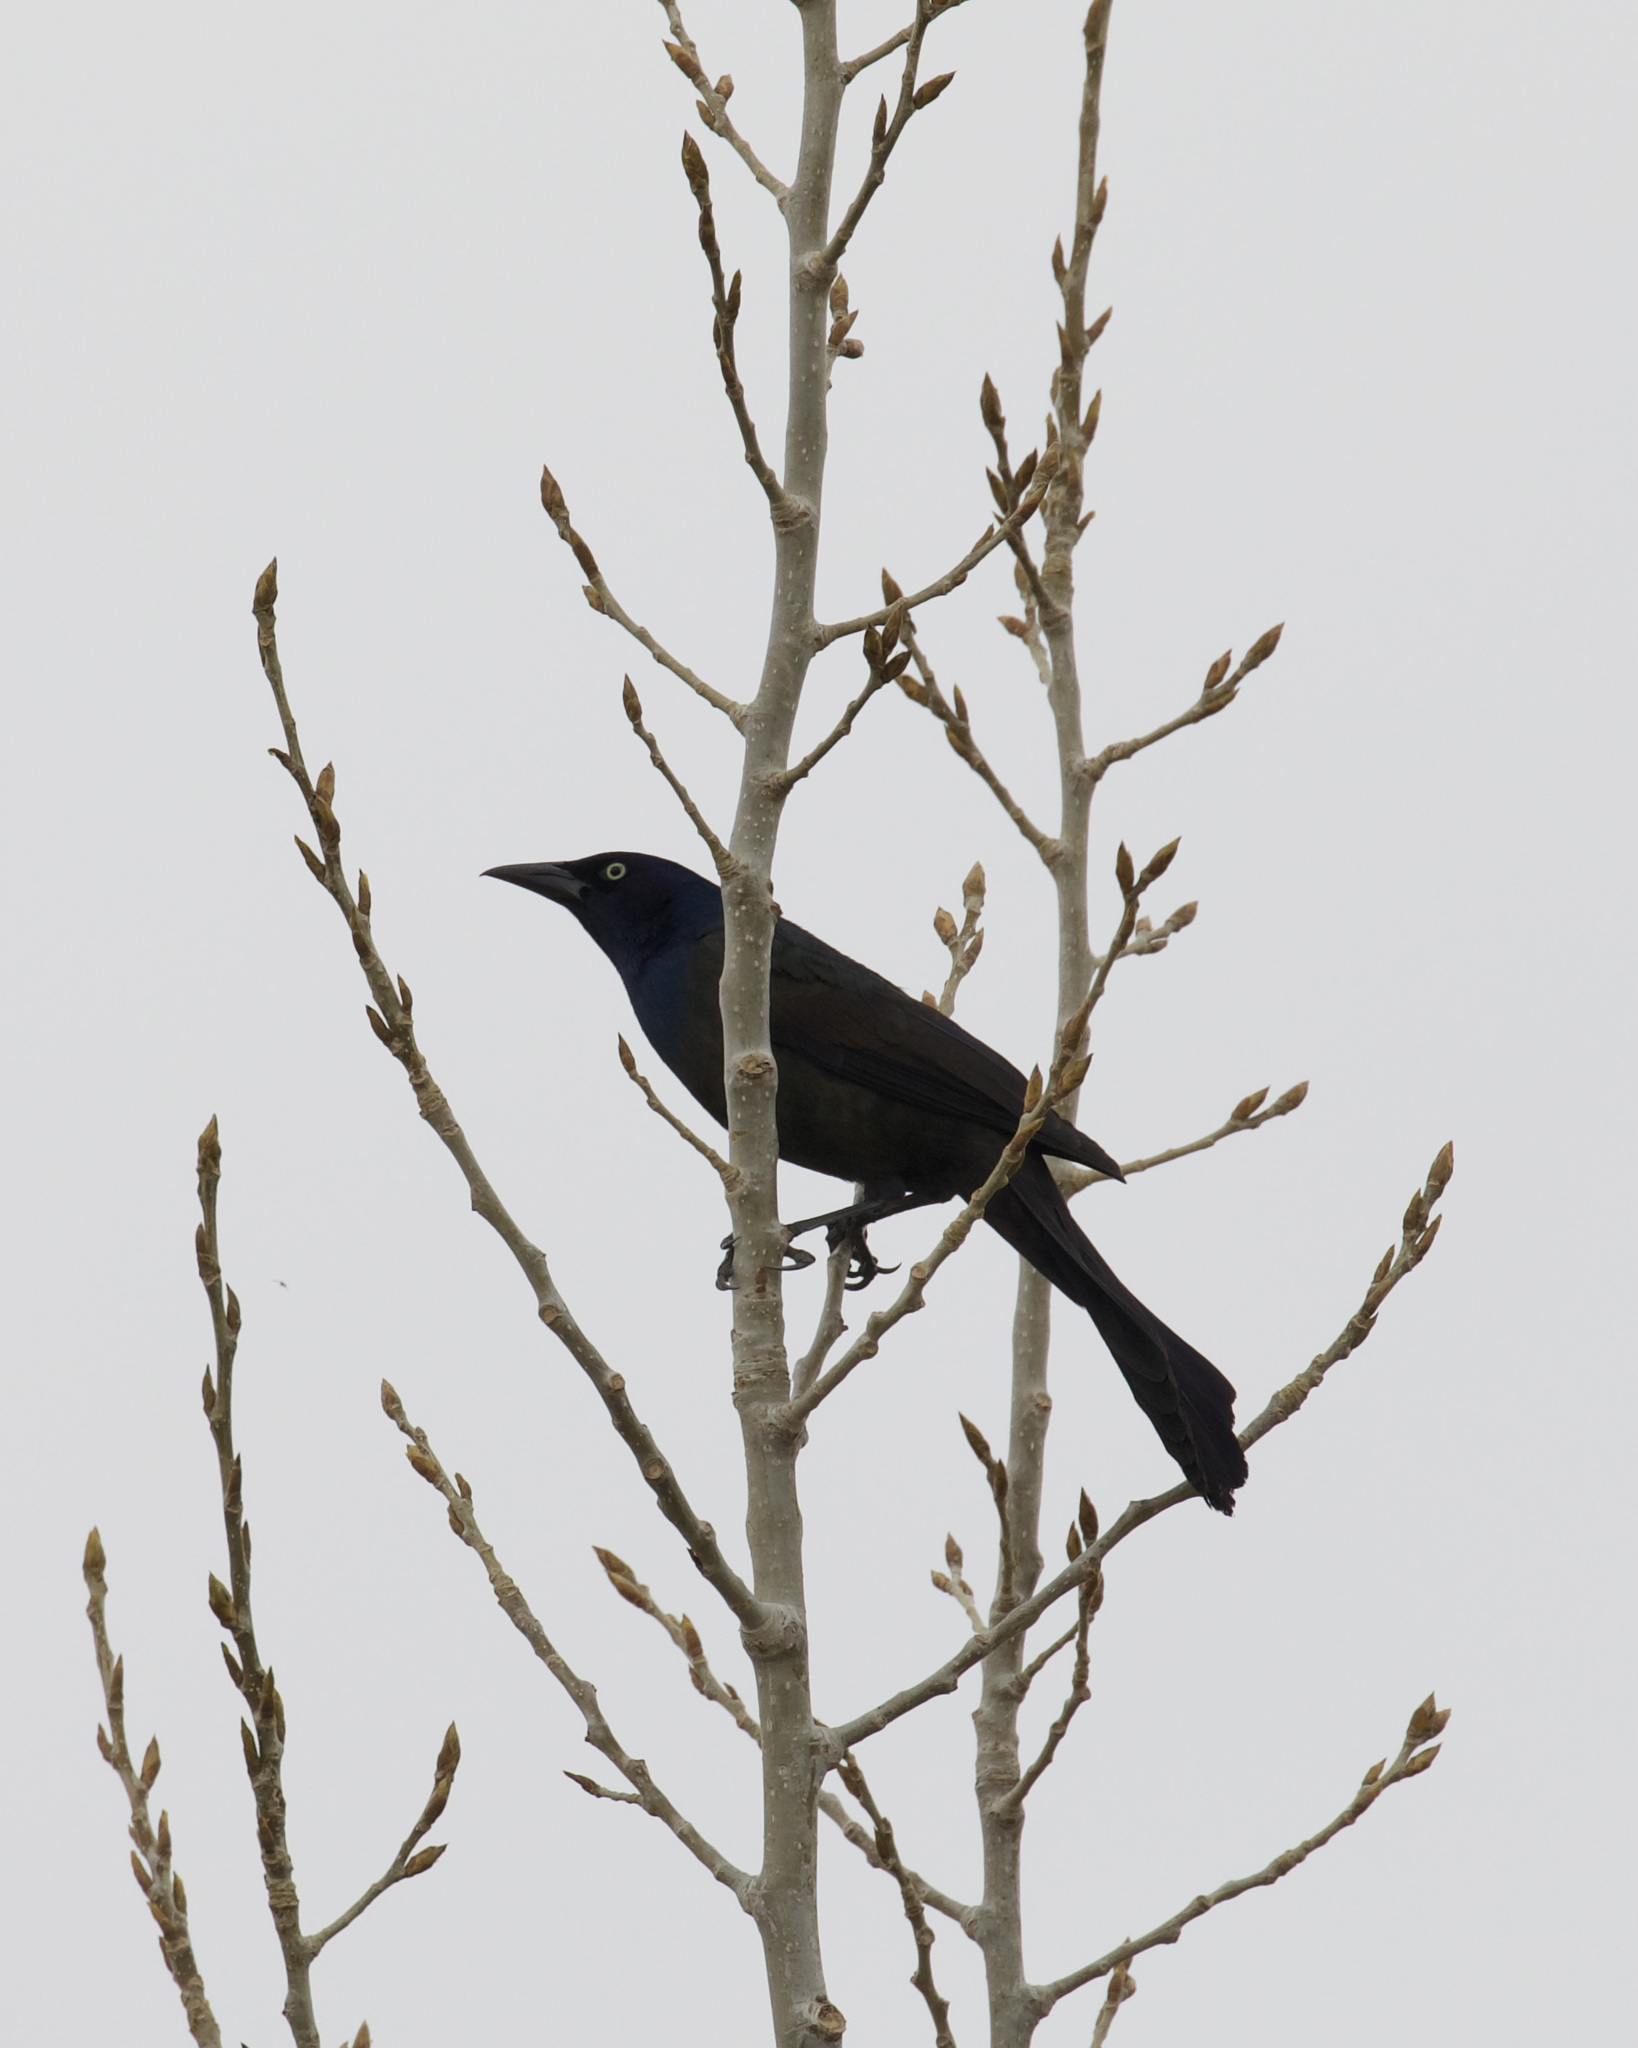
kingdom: Animalia
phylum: Chordata
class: Aves
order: Passeriformes
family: Icteridae
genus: Quiscalus
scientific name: Quiscalus quiscula
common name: Common grackle
